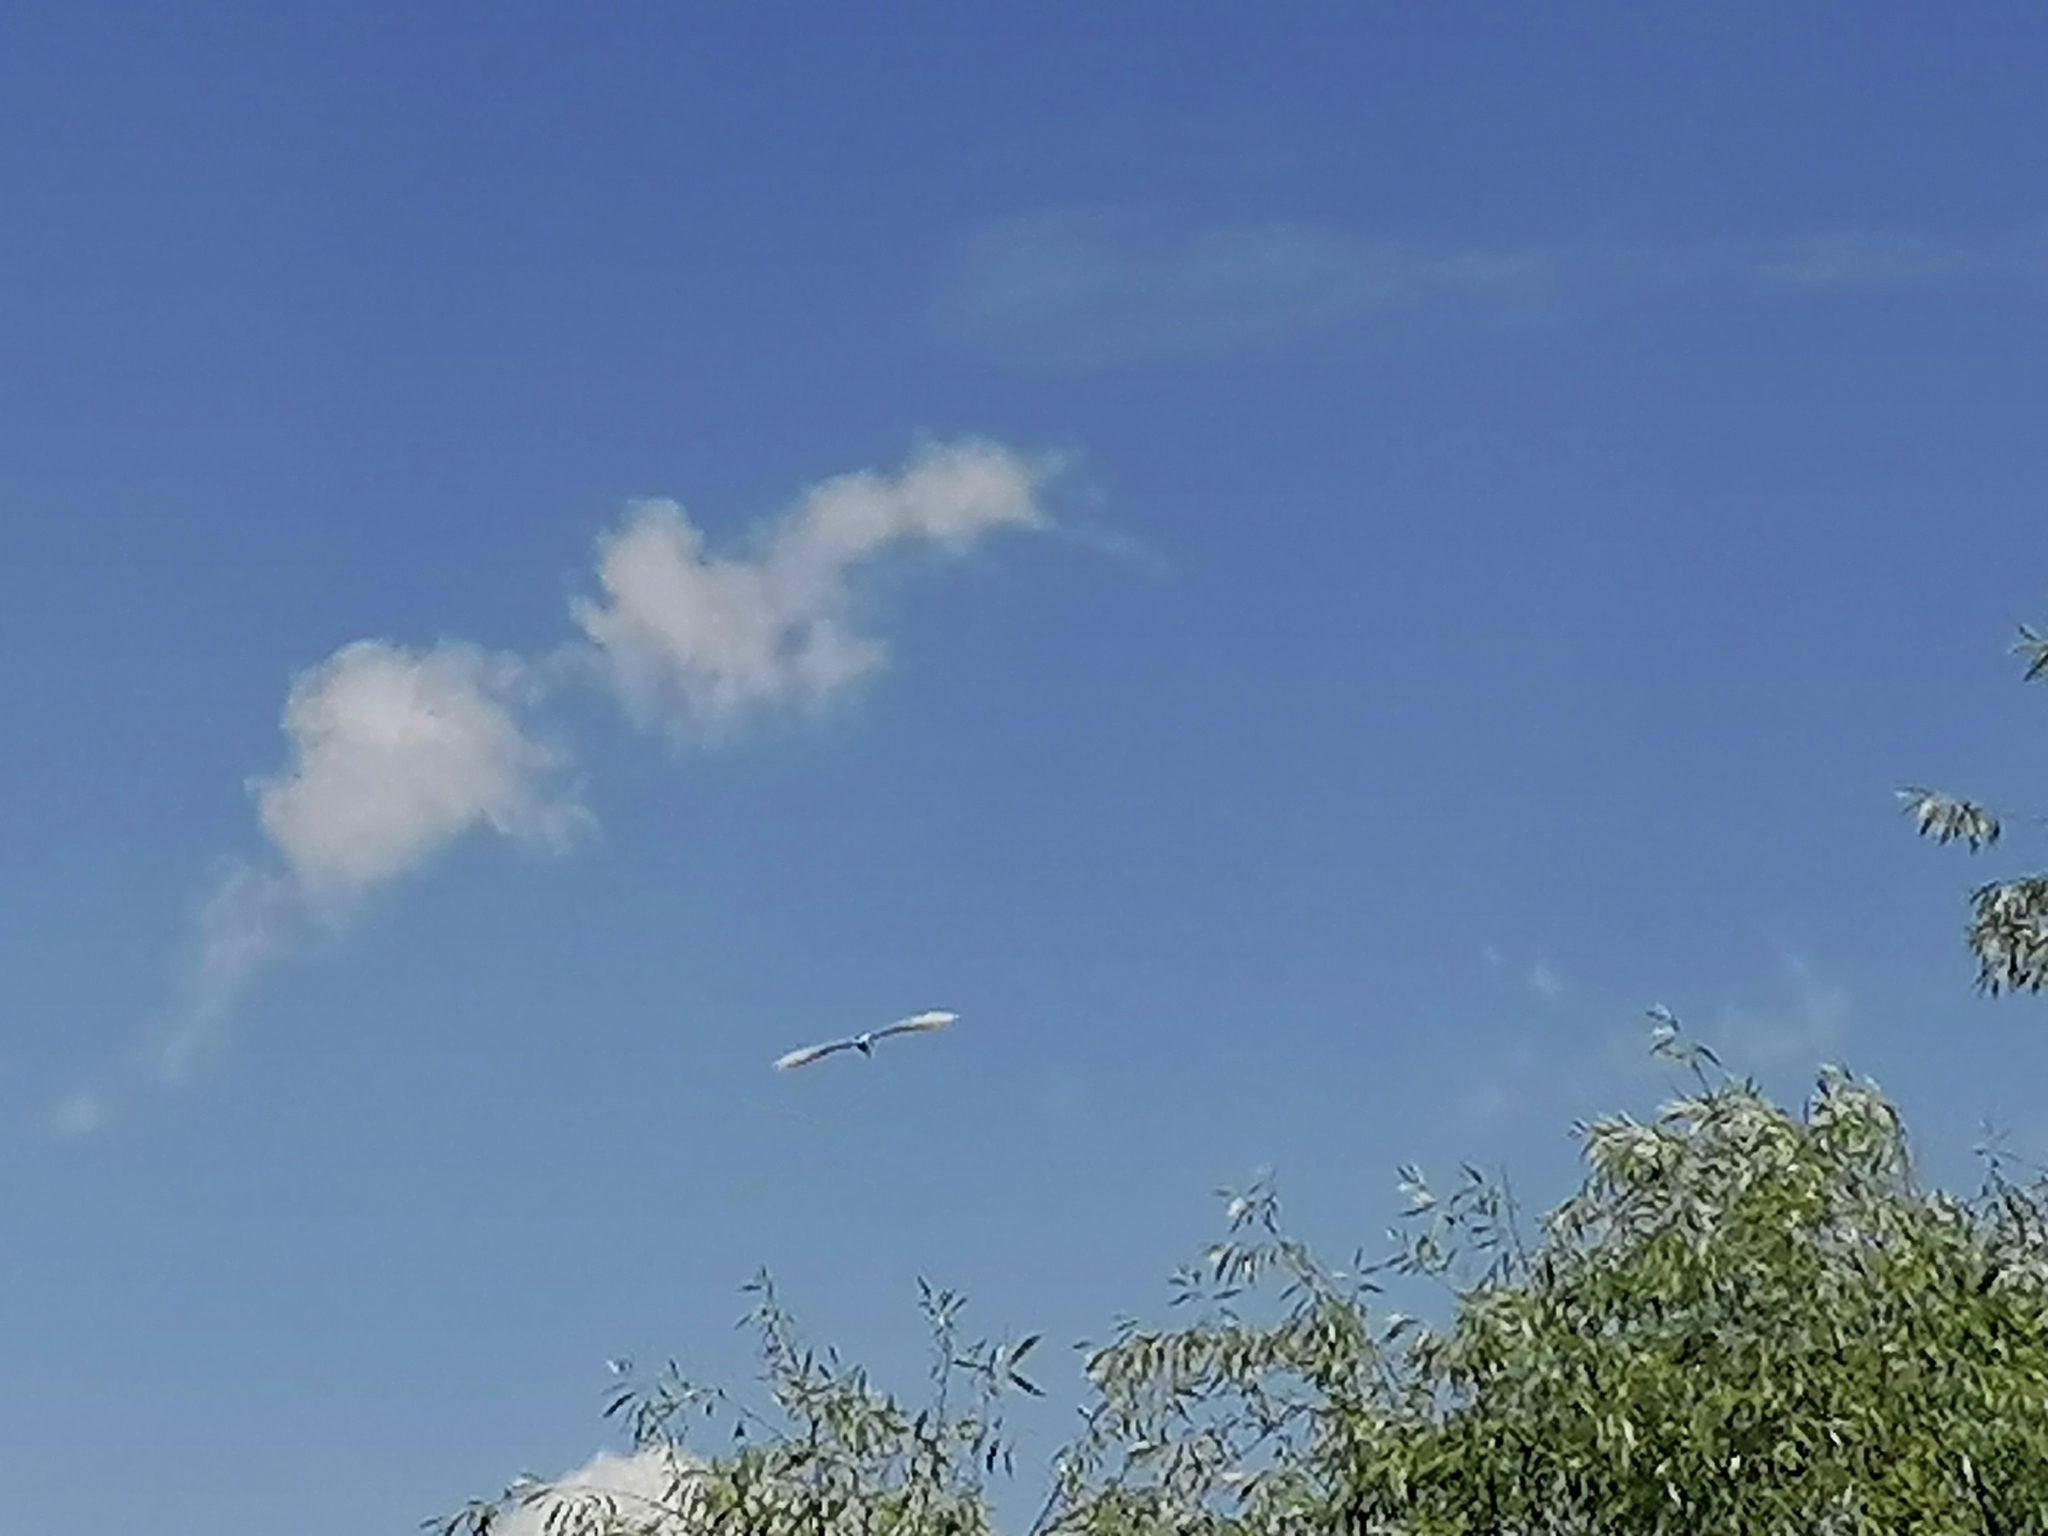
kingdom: Animalia
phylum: Chordata
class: Aves
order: Pelecaniformes
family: Ardeidae
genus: Ardea
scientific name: Ardea alba
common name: Great egret
